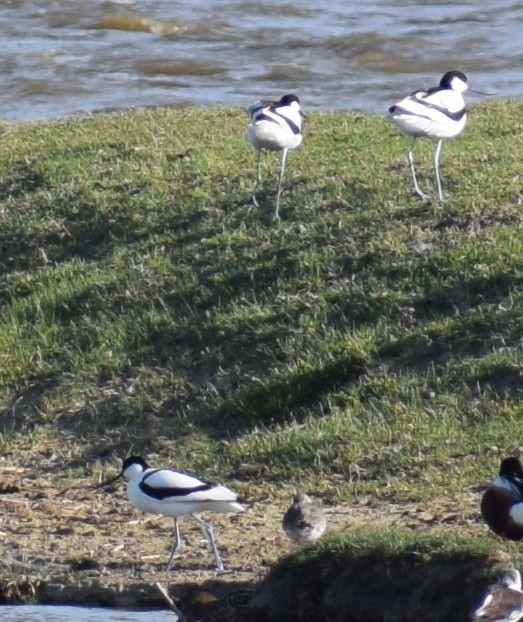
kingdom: Animalia
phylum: Chordata
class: Aves
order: Charadriiformes
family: Recurvirostridae
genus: Recurvirostra
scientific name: Recurvirostra avosetta
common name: Pied avocet
